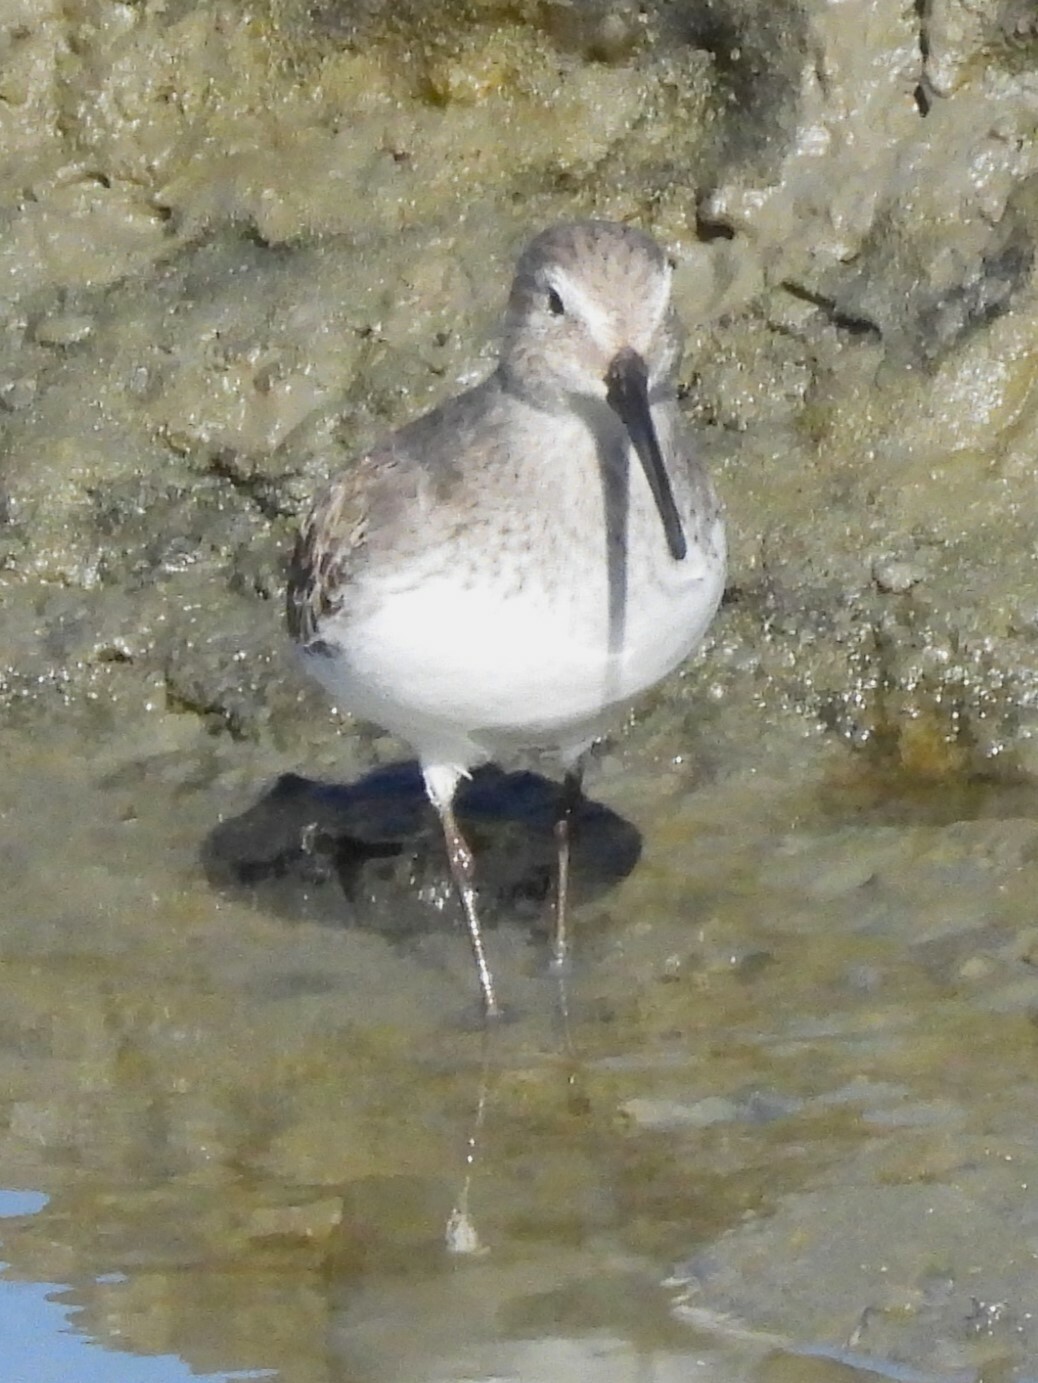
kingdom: Animalia
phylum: Chordata
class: Aves
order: Charadriiformes
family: Scolopacidae
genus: Calidris
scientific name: Calidris alpina
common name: Dunlin
